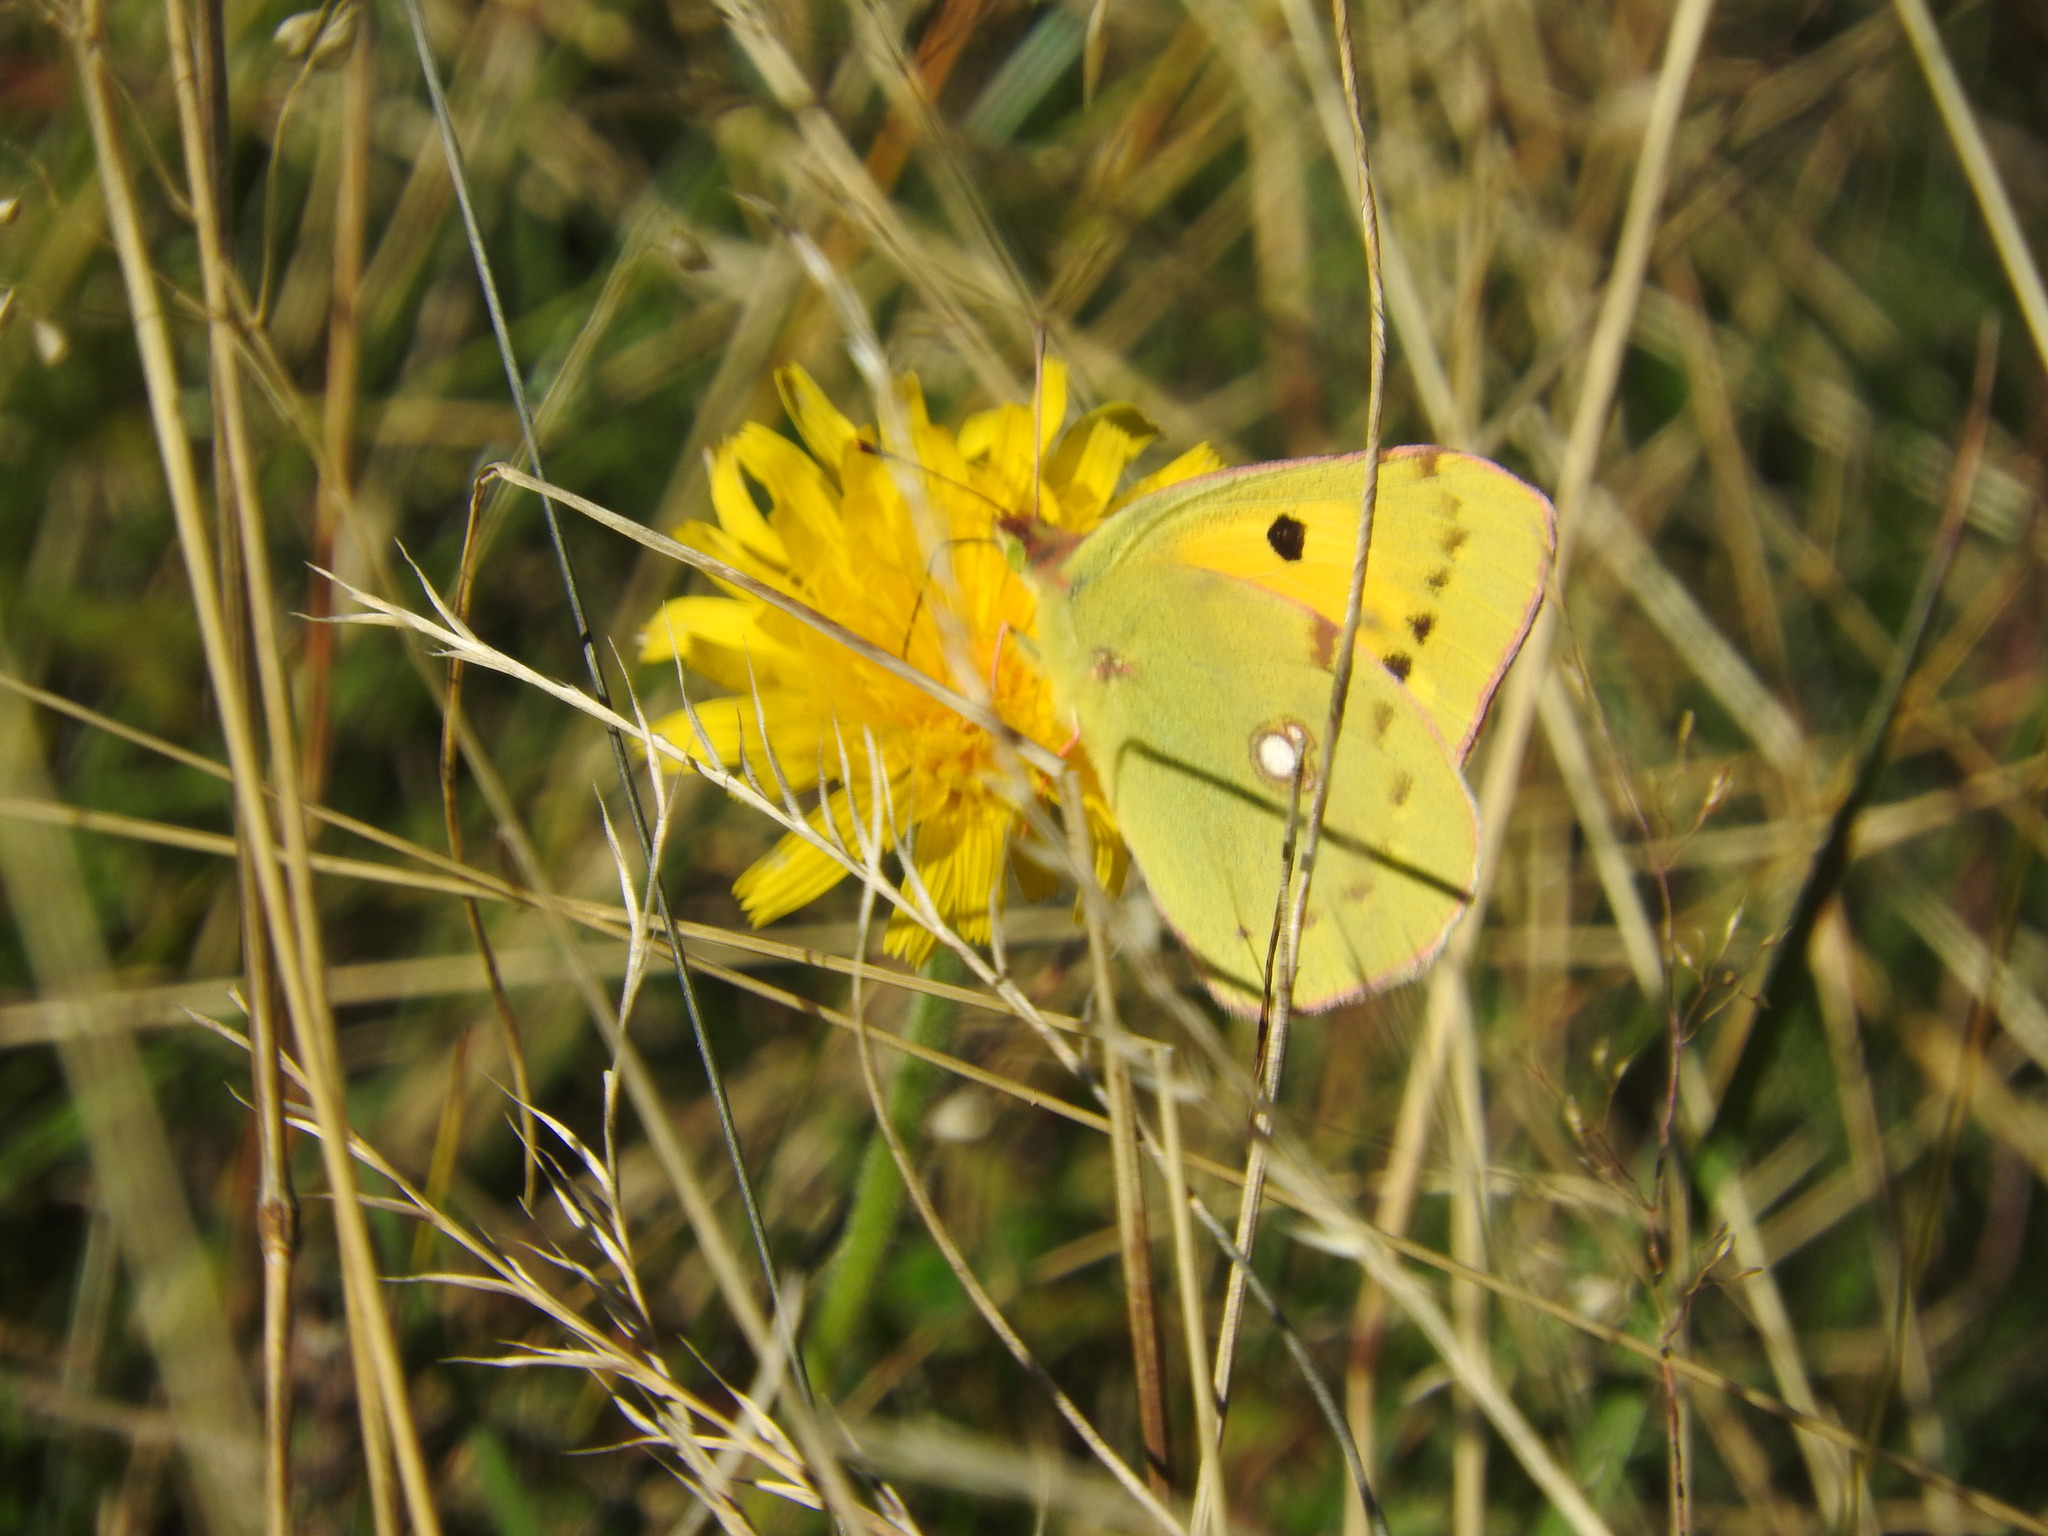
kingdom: Animalia
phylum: Arthropoda
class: Insecta
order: Lepidoptera
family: Pieridae
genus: Colias
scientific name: Colias croceus
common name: Clouded yellow
